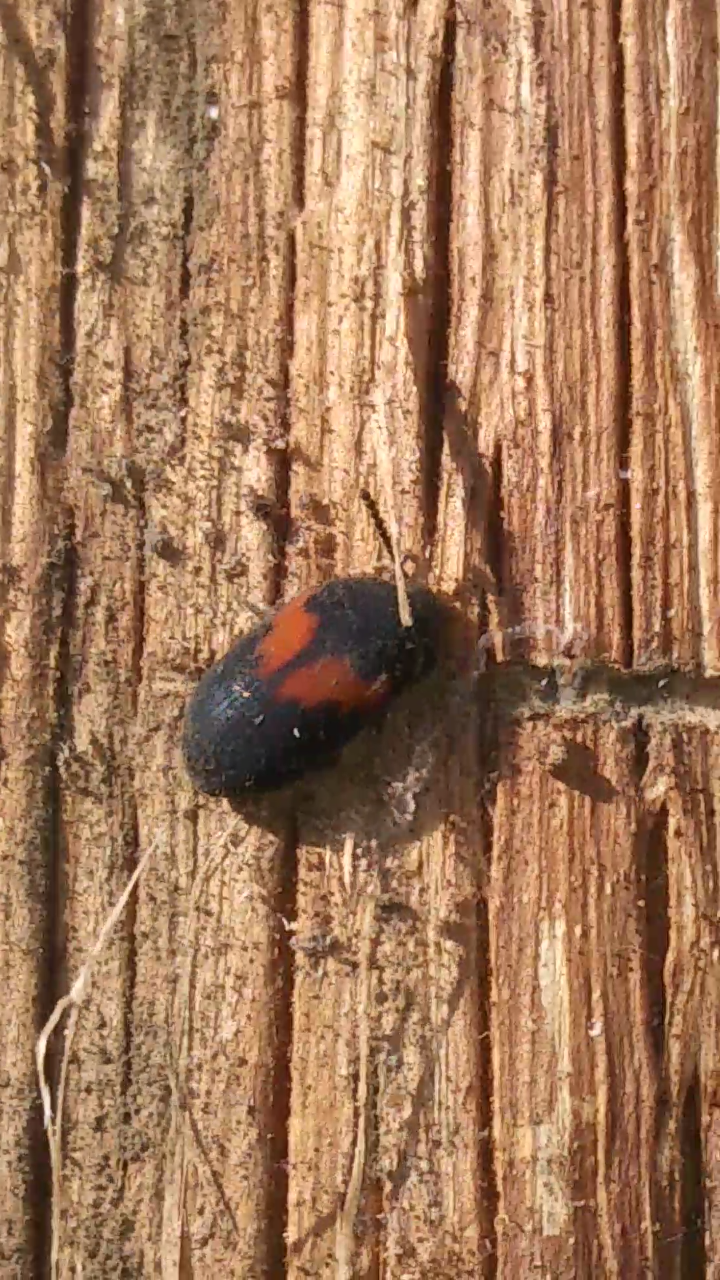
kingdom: Animalia
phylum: Arthropoda
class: Insecta
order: Coleoptera
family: Tenebrionidae
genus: Platydema
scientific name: Platydema elliptica
